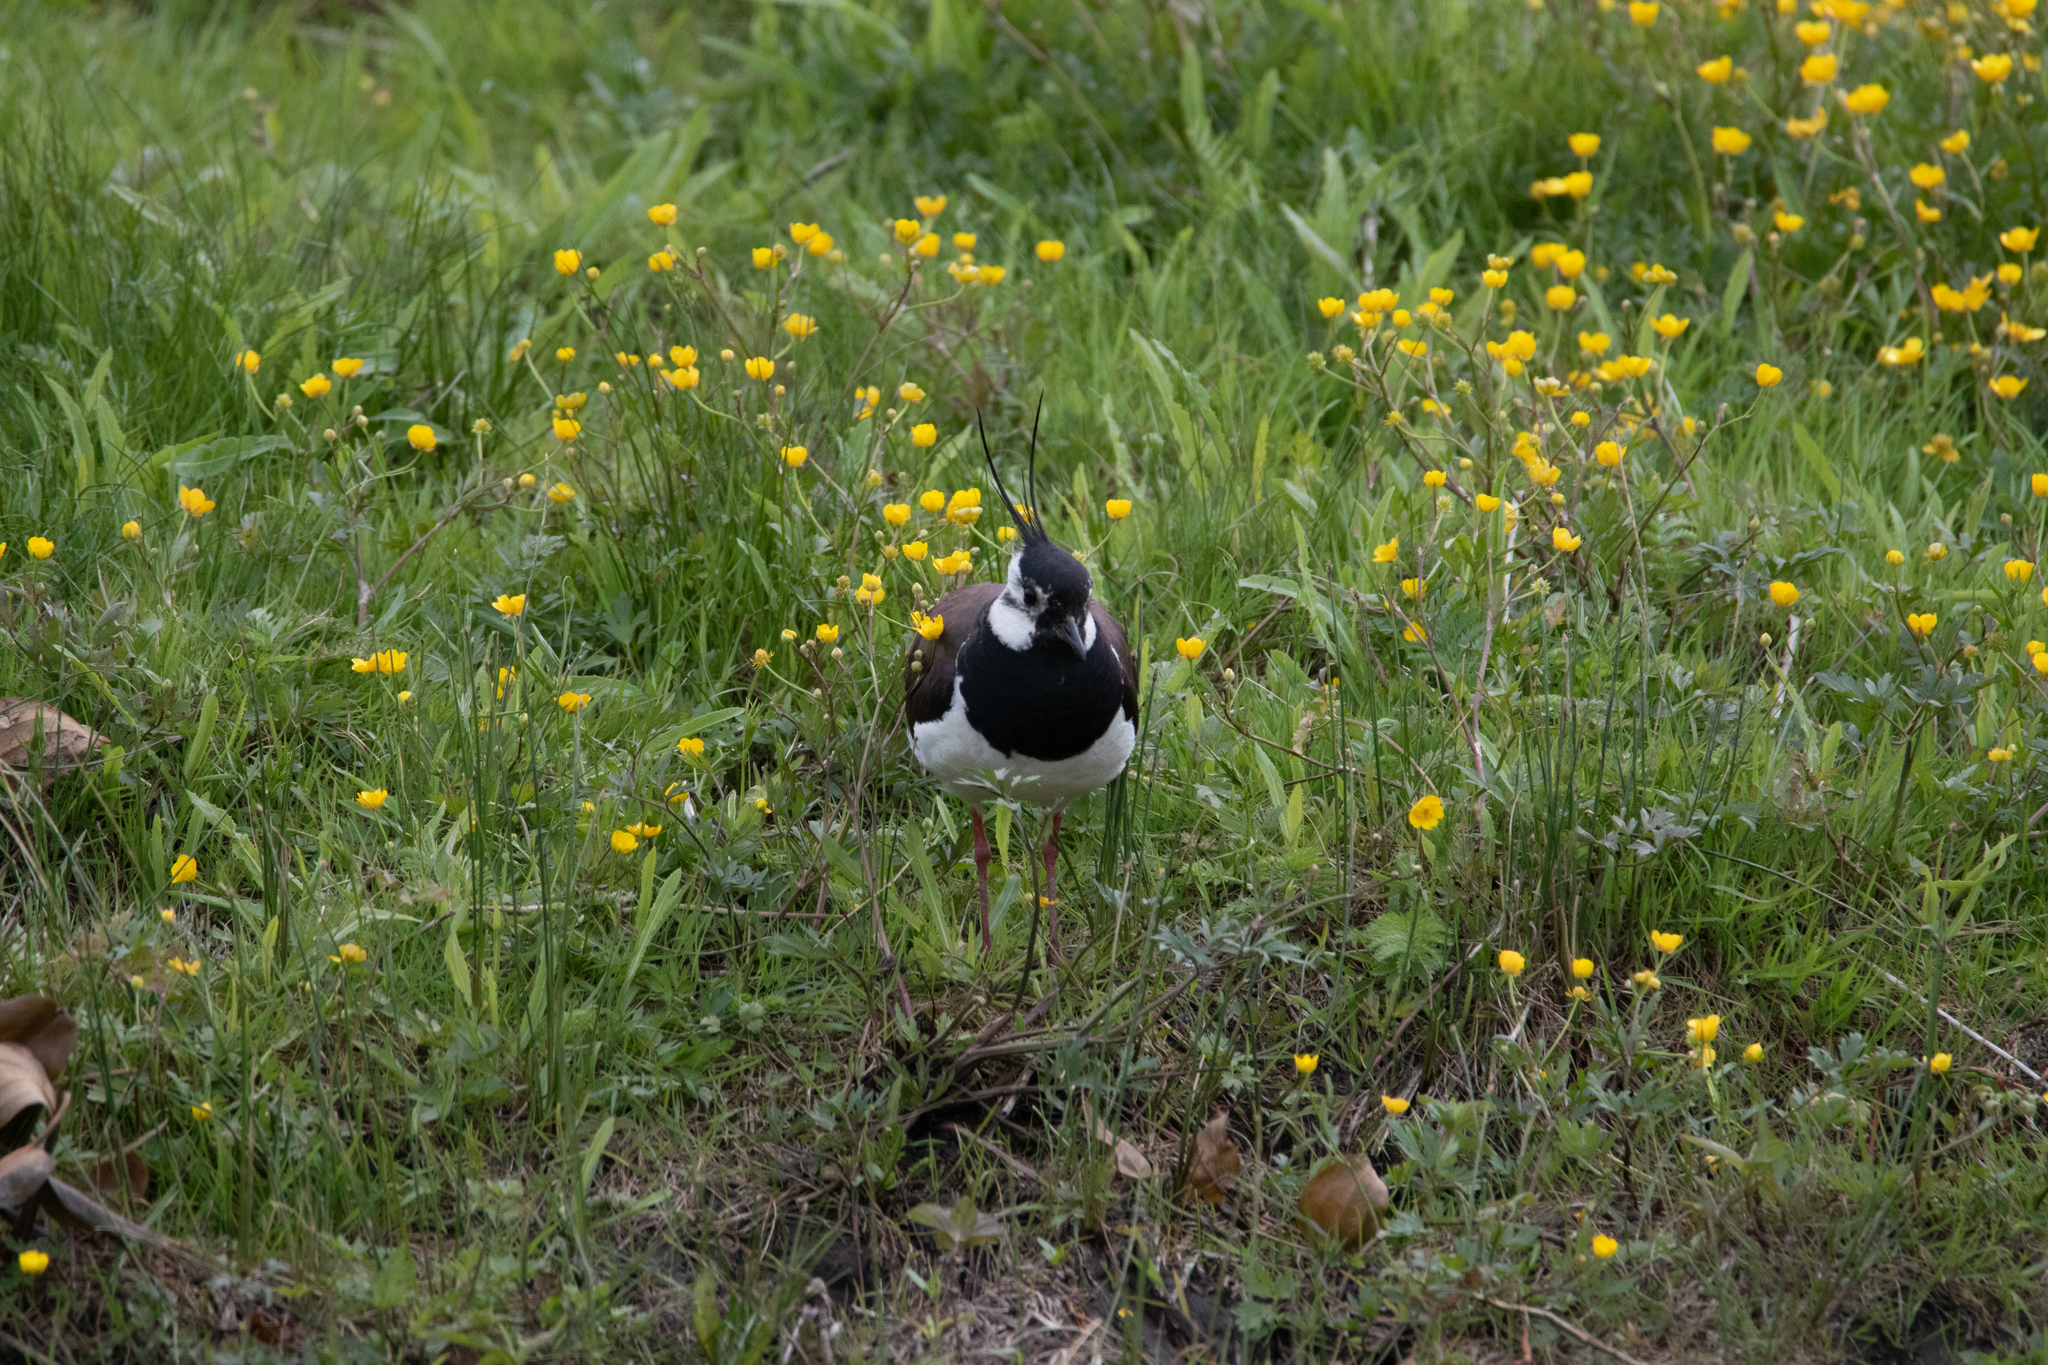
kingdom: Animalia
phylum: Chordata
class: Aves
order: Charadriiformes
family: Charadriidae
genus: Vanellus
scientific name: Vanellus vanellus
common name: Northern lapwing
